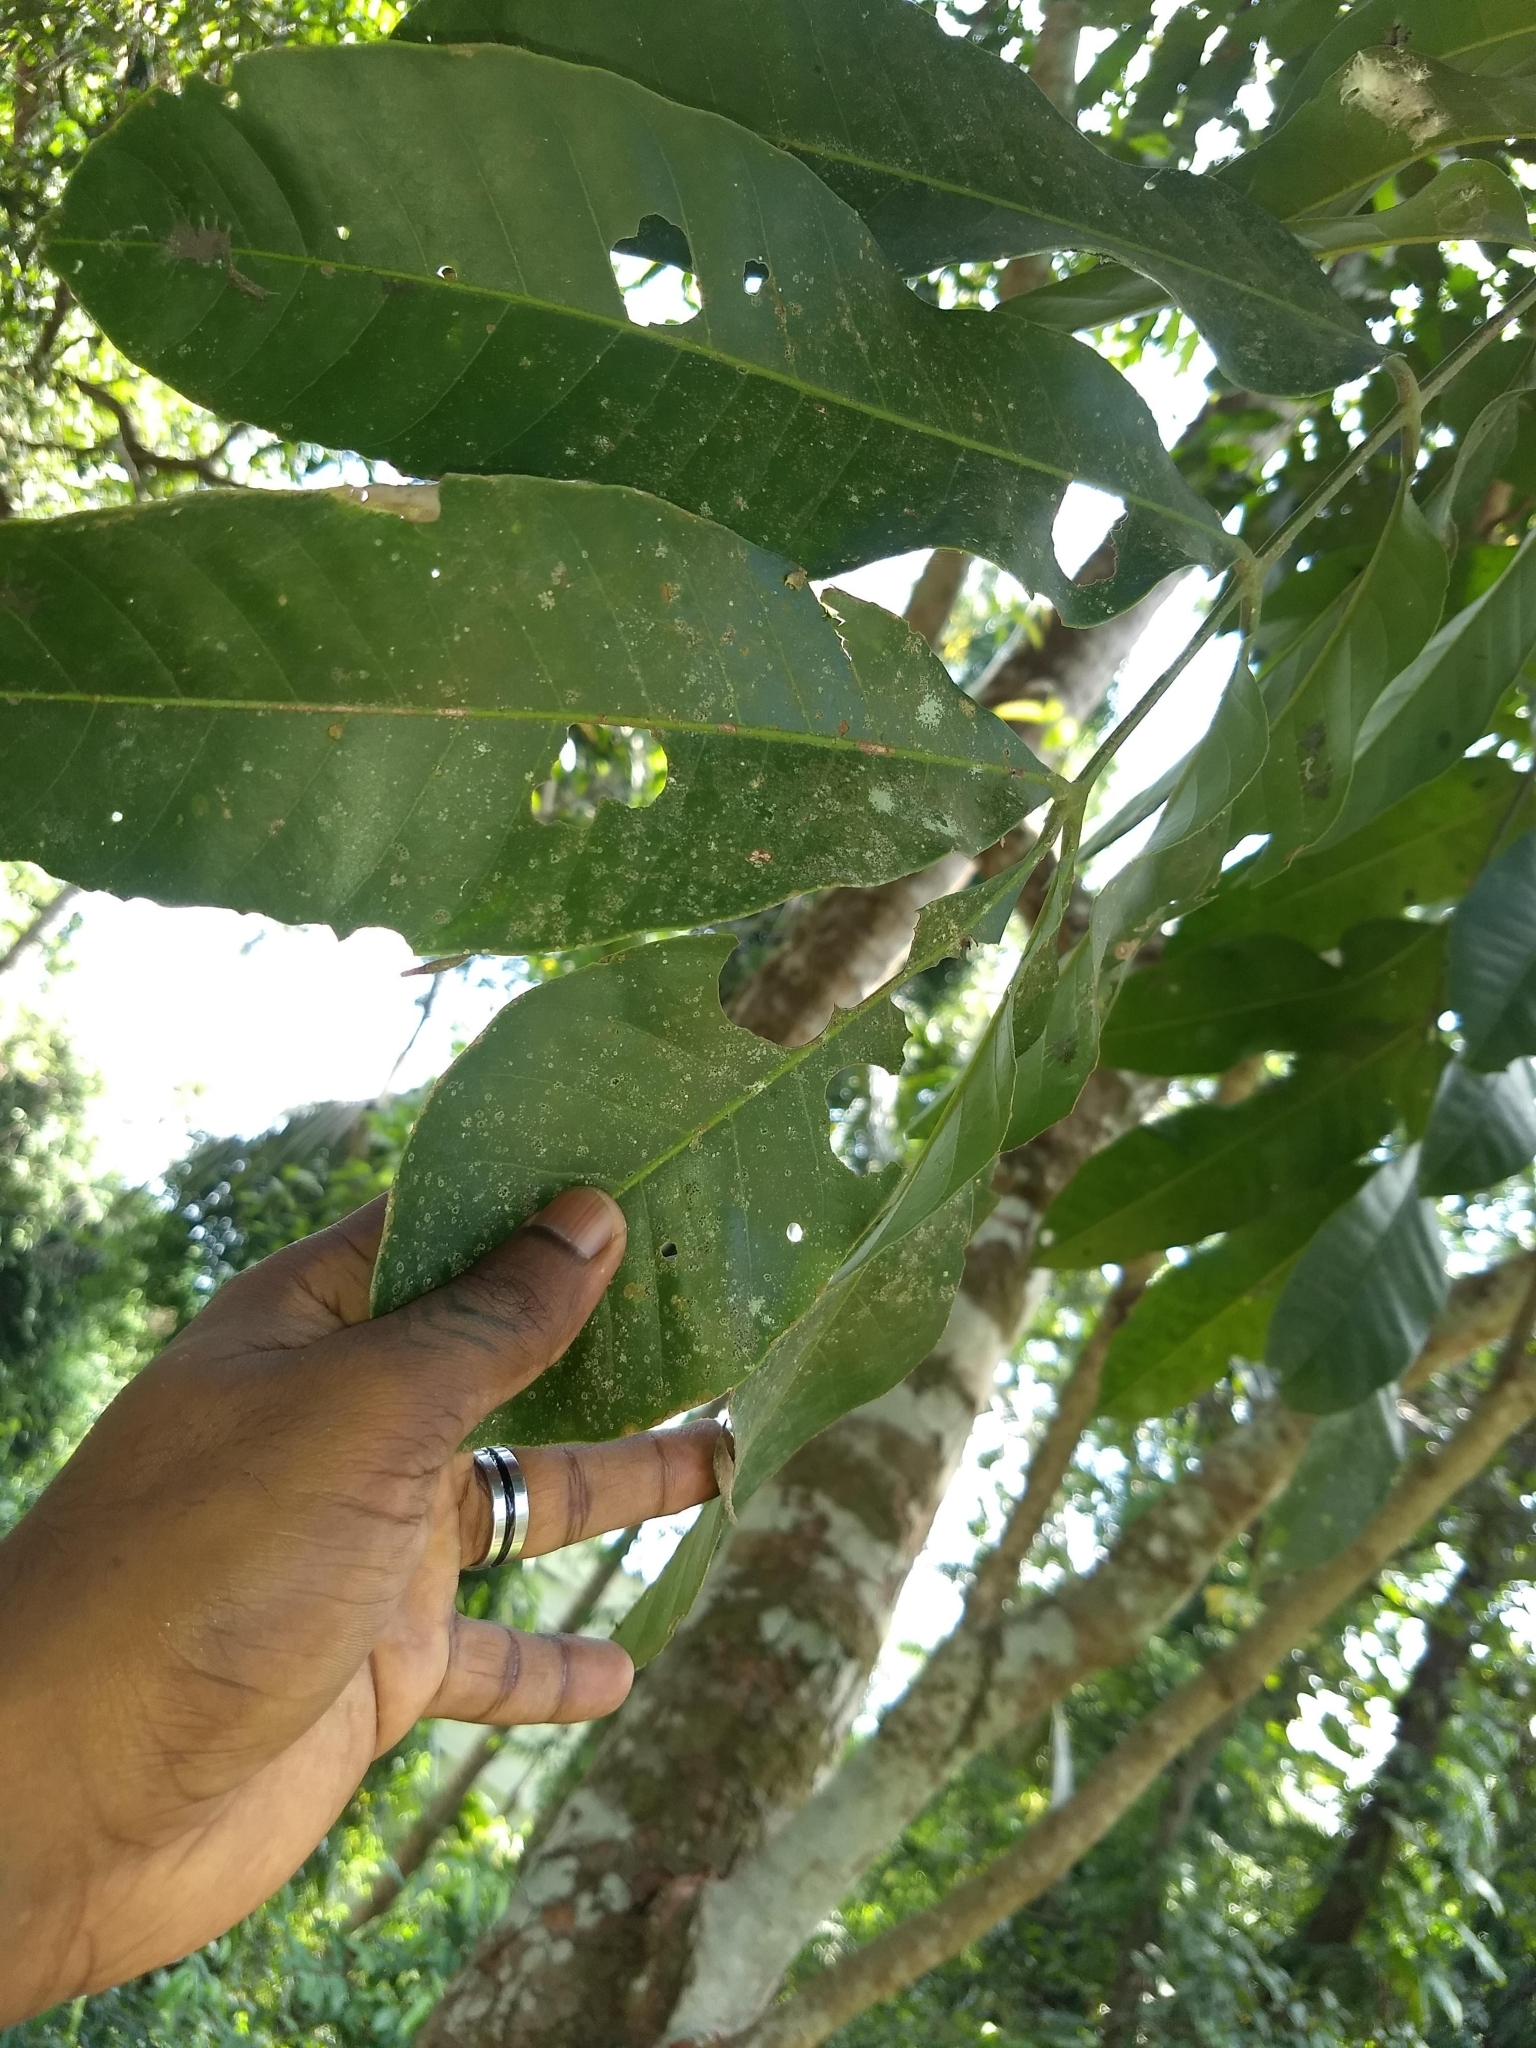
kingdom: Plantae
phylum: Tracheophyta
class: Magnoliopsida
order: Sapindales
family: Meliaceae
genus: Aphanamixis
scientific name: Aphanamixis polystachya
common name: Pithraj tree
